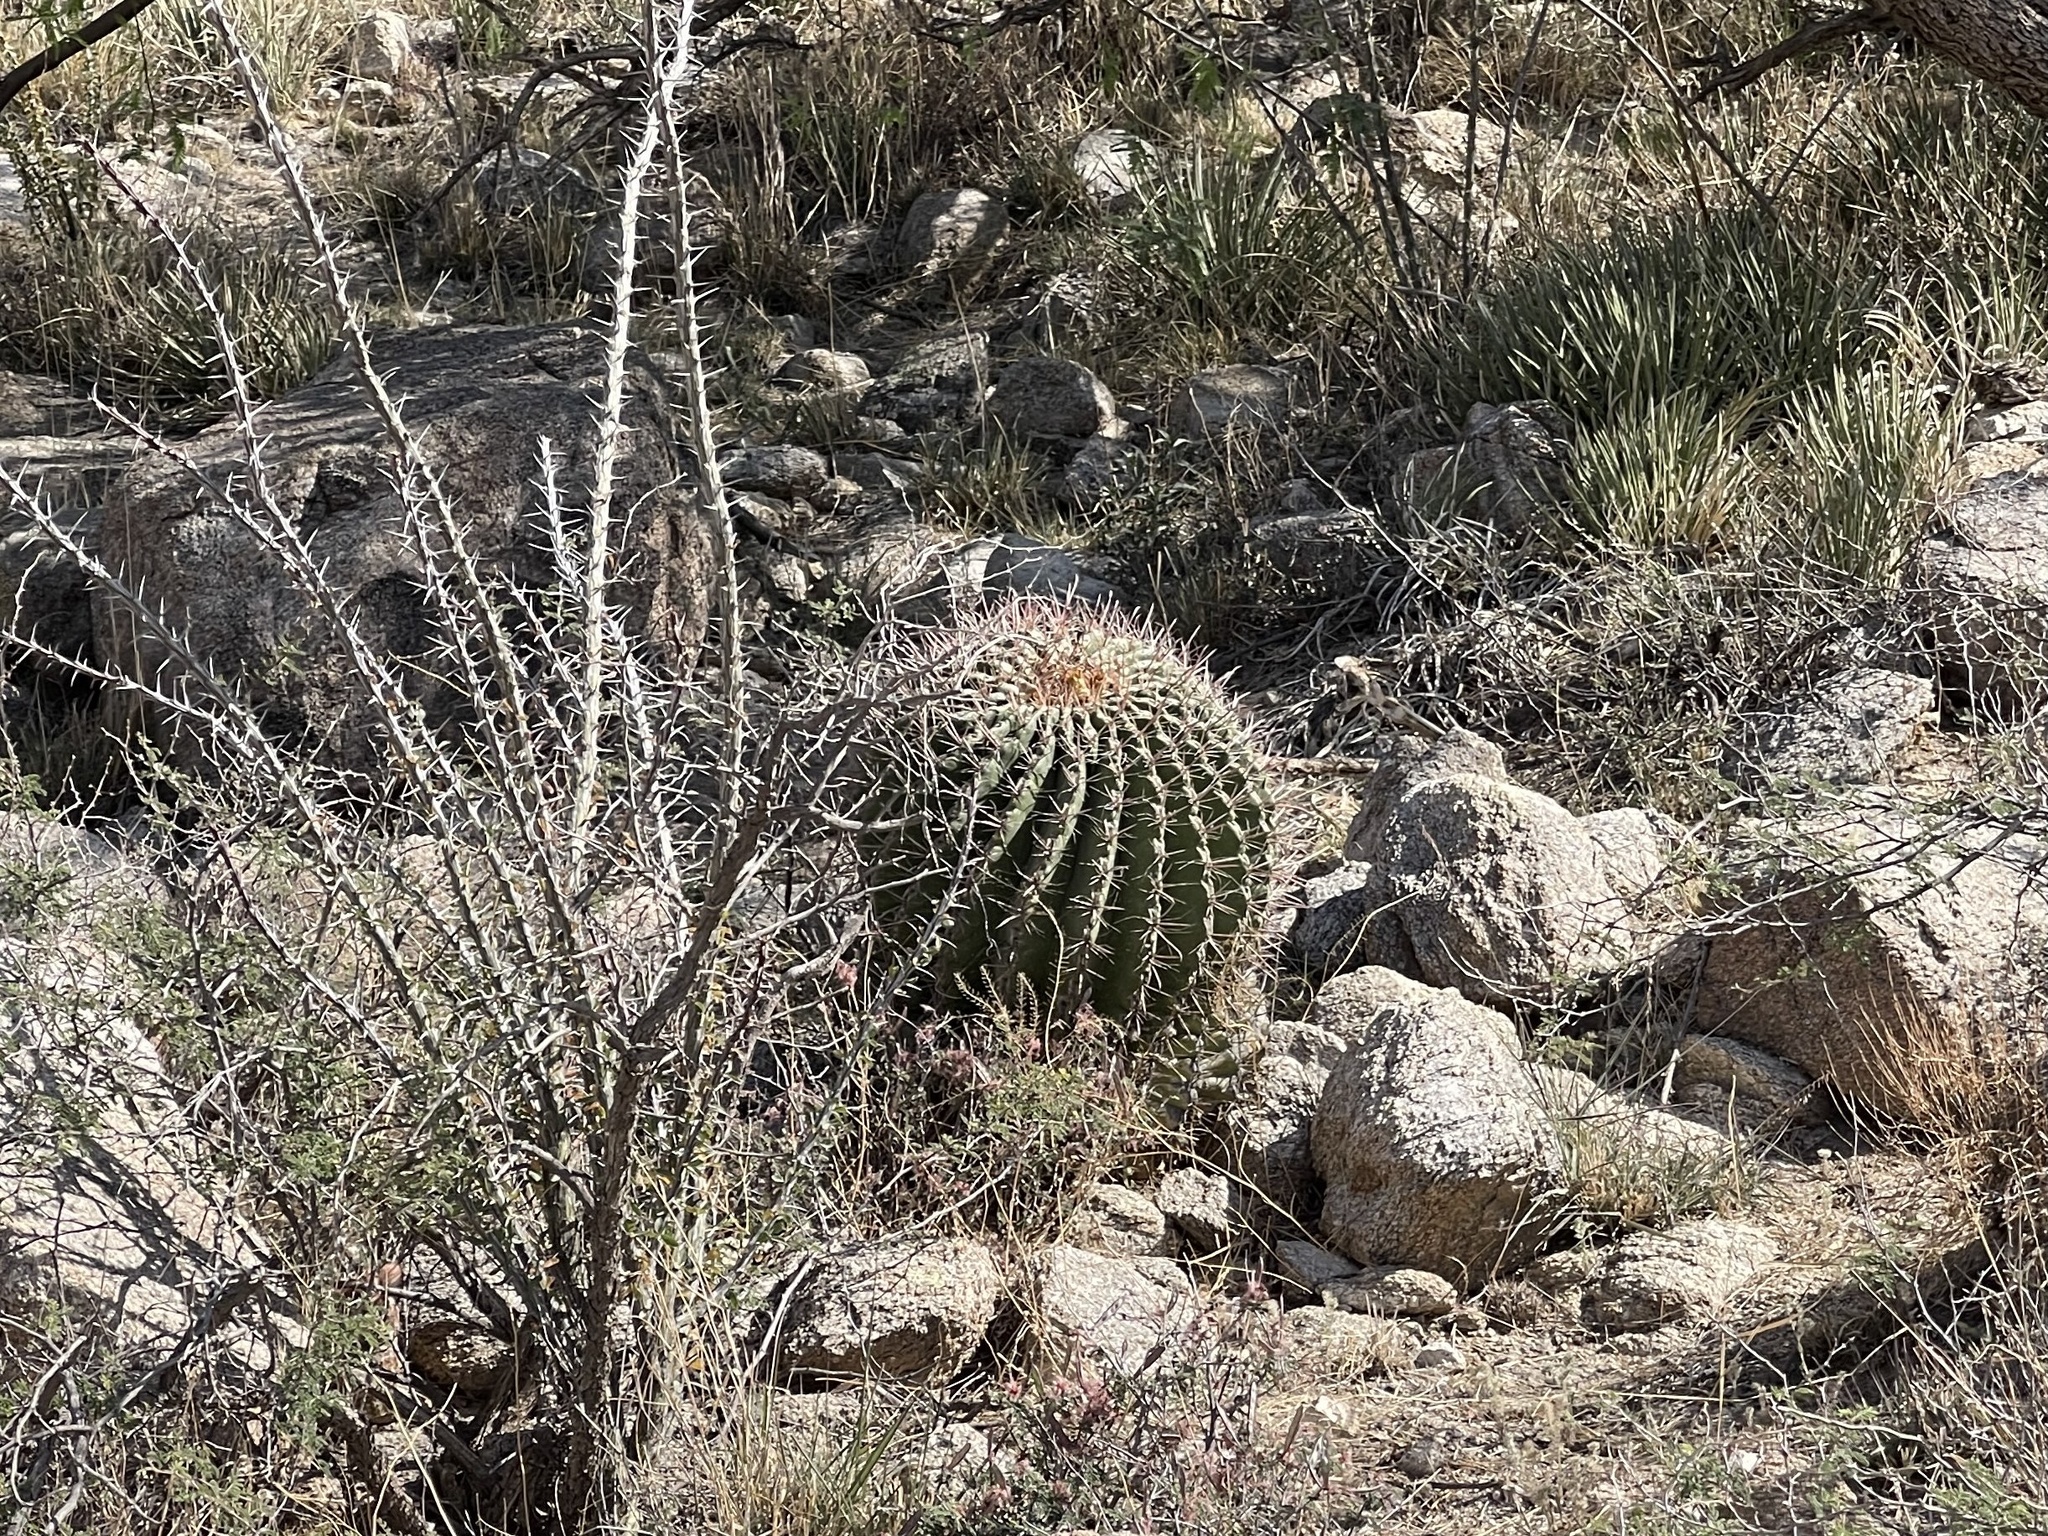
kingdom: Plantae
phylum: Tracheophyta
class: Magnoliopsida
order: Caryophyllales
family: Cactaceae
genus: Ferocactus
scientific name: Ferocactus wislizeni
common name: Candy barrel cactus
